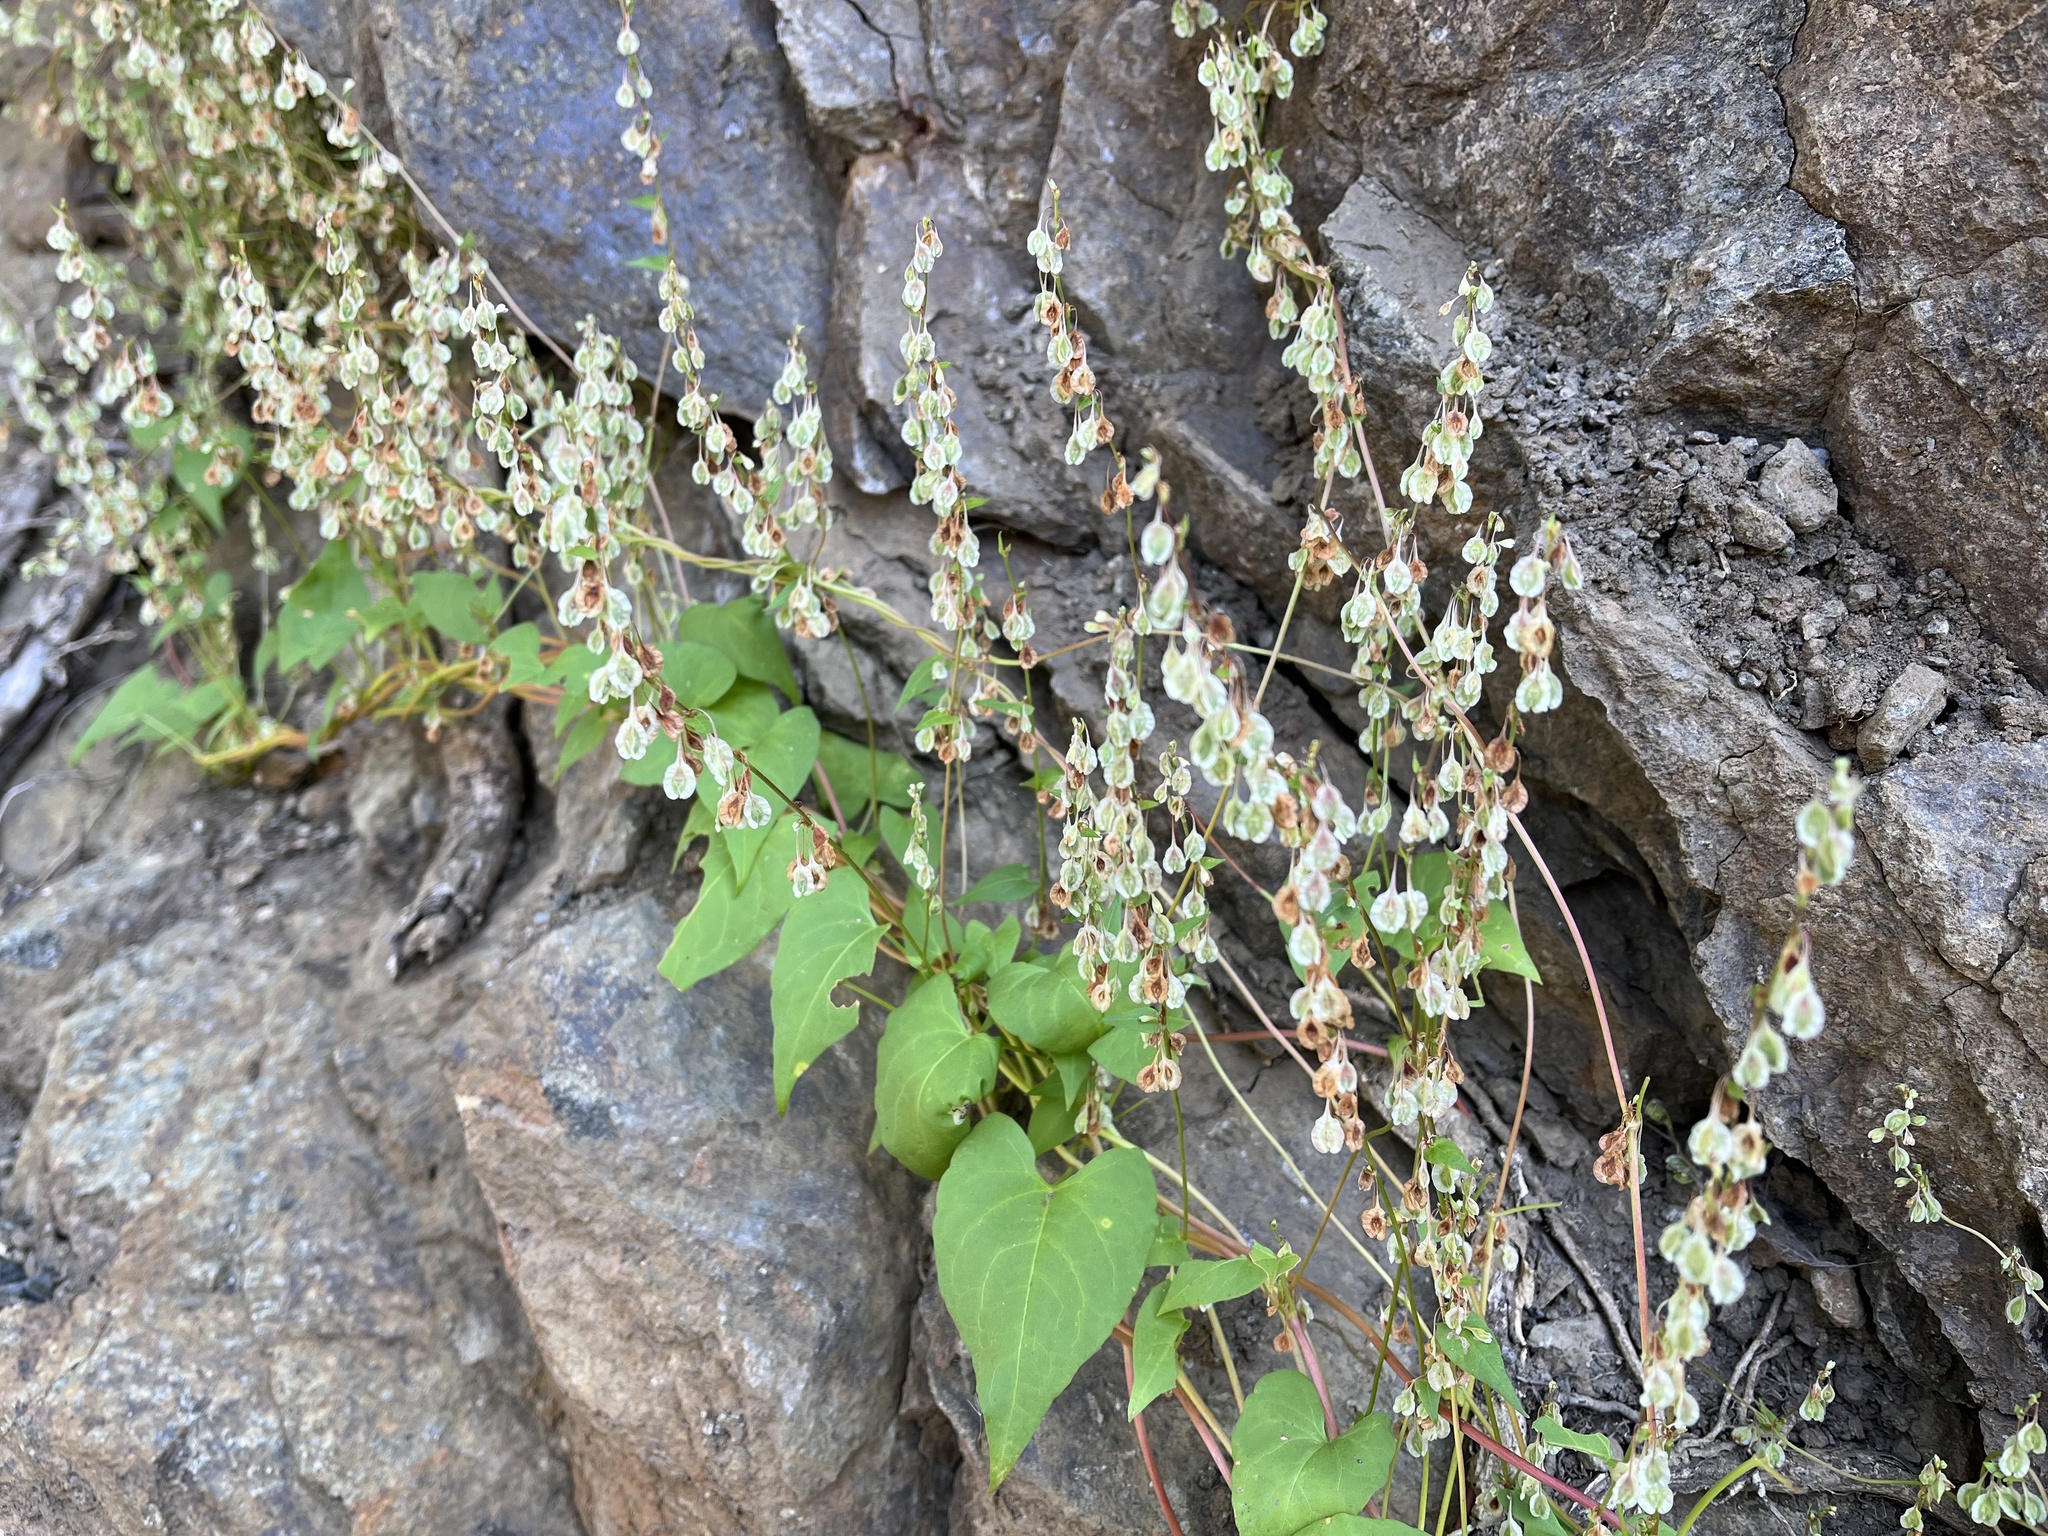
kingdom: Plantae
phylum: Tracheophyta
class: Magnoliopsida
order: Caryophyllales
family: Polygonaceae
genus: Fallopia
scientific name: Fallopia dumetorum
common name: Copse-bindweed
